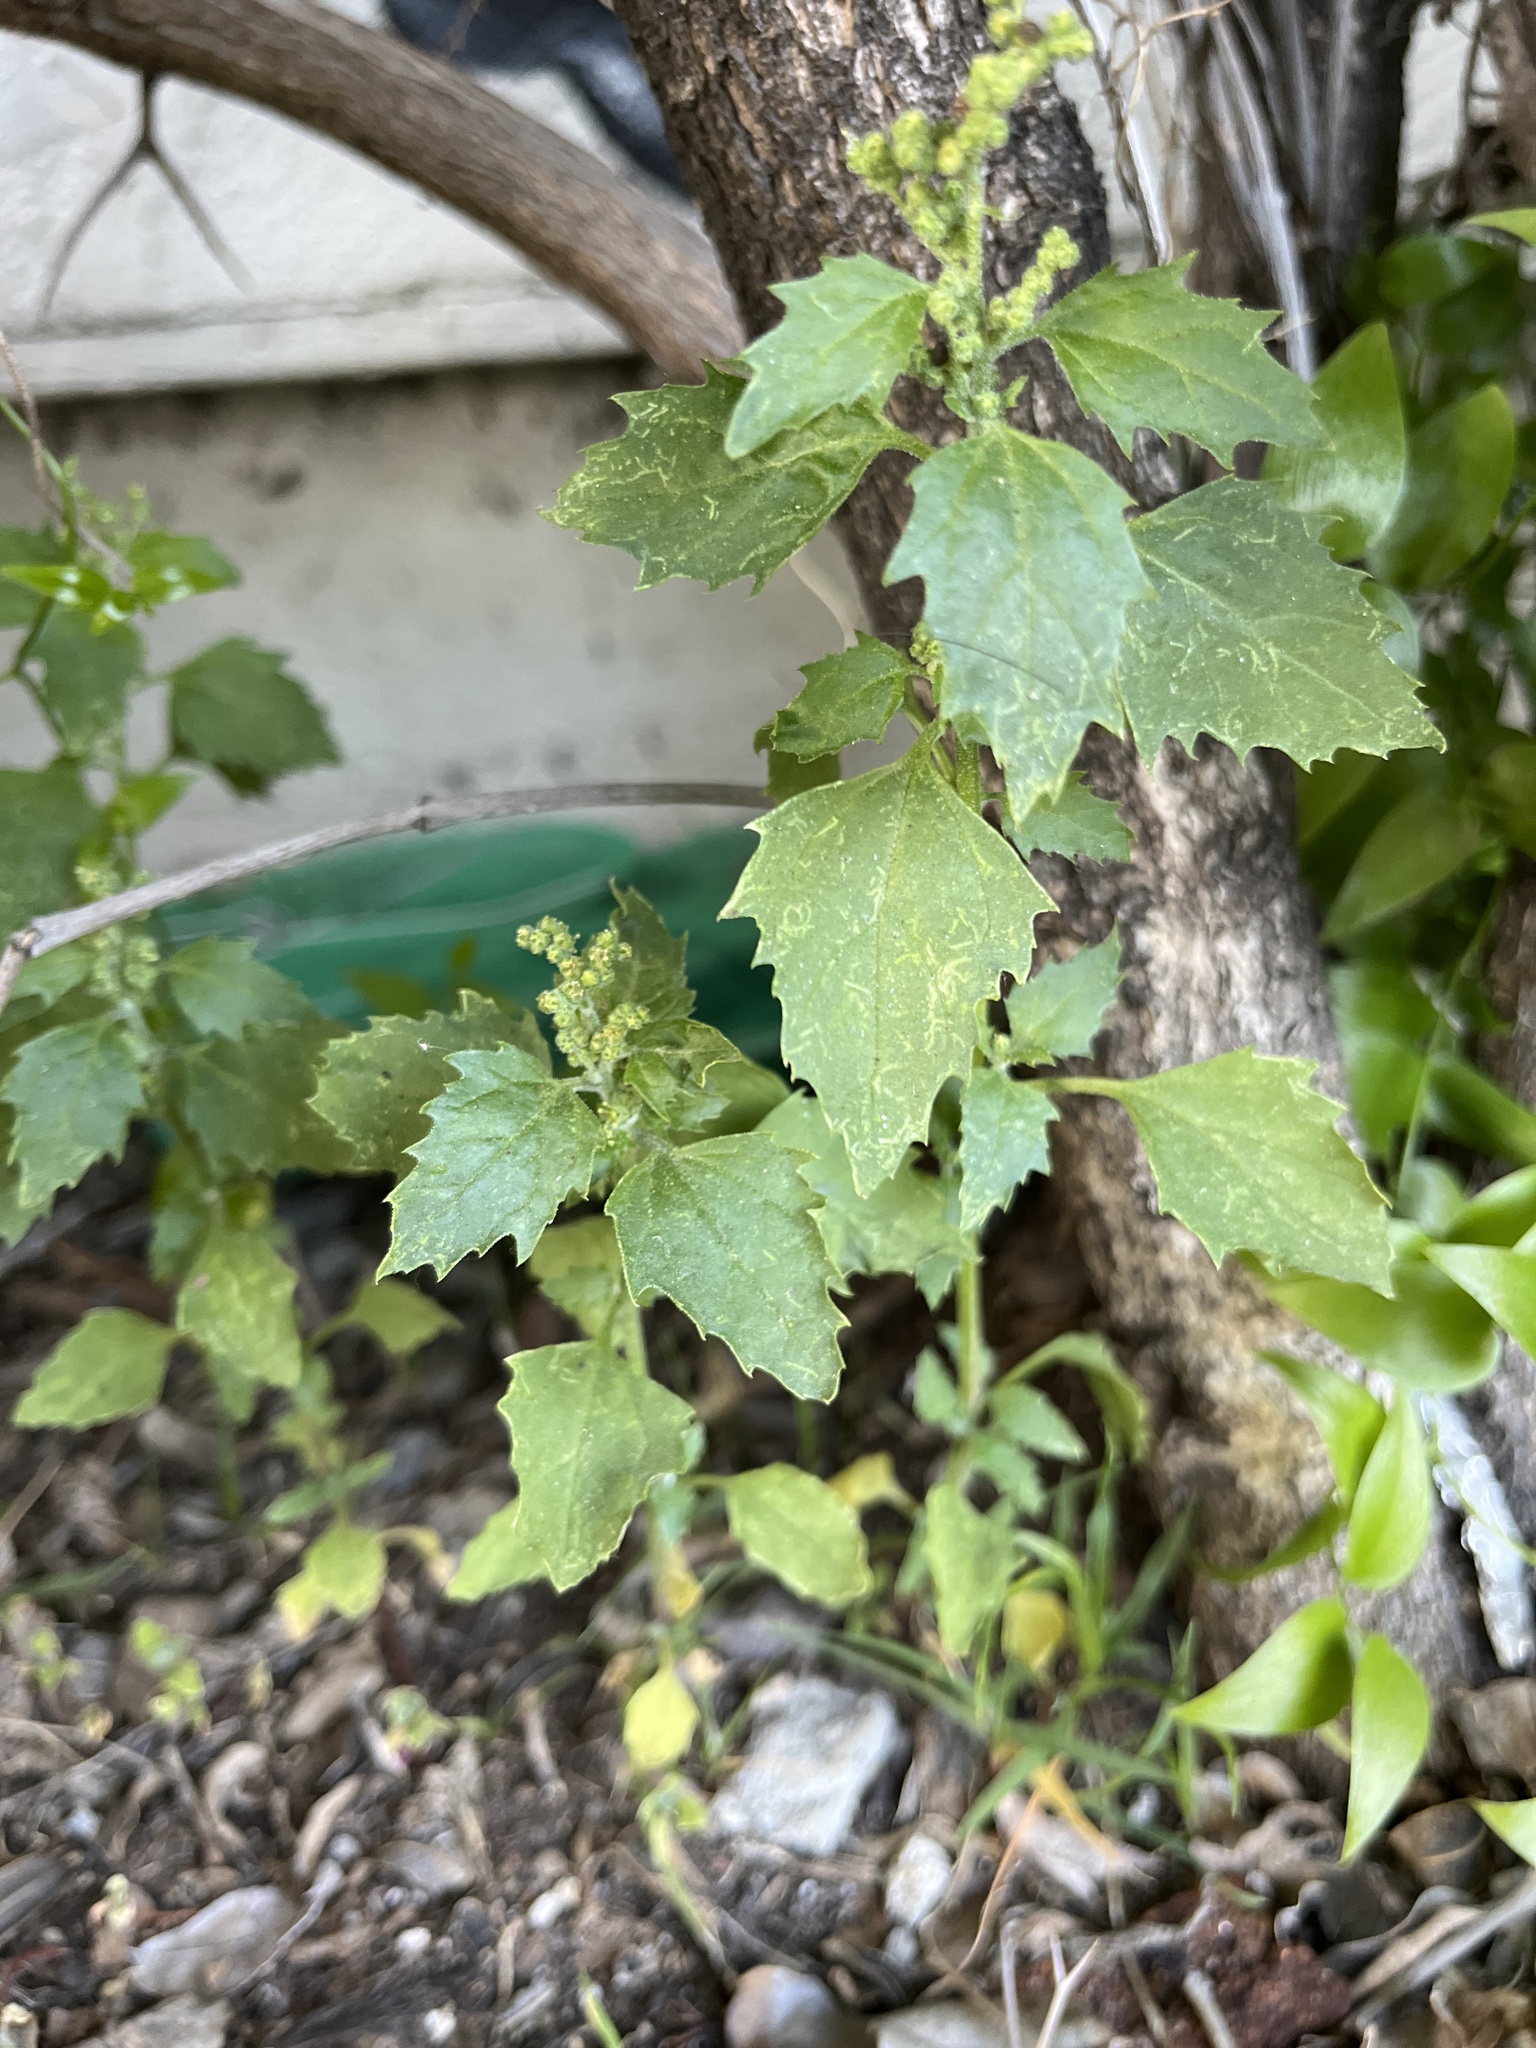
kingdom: Plantae
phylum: Tracheophyta
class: Magnoliopsida
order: Caryophyllales
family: Amaranthaceae
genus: Chenopodiastrum
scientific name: Chenopodiastrum murale
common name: Sowbane
